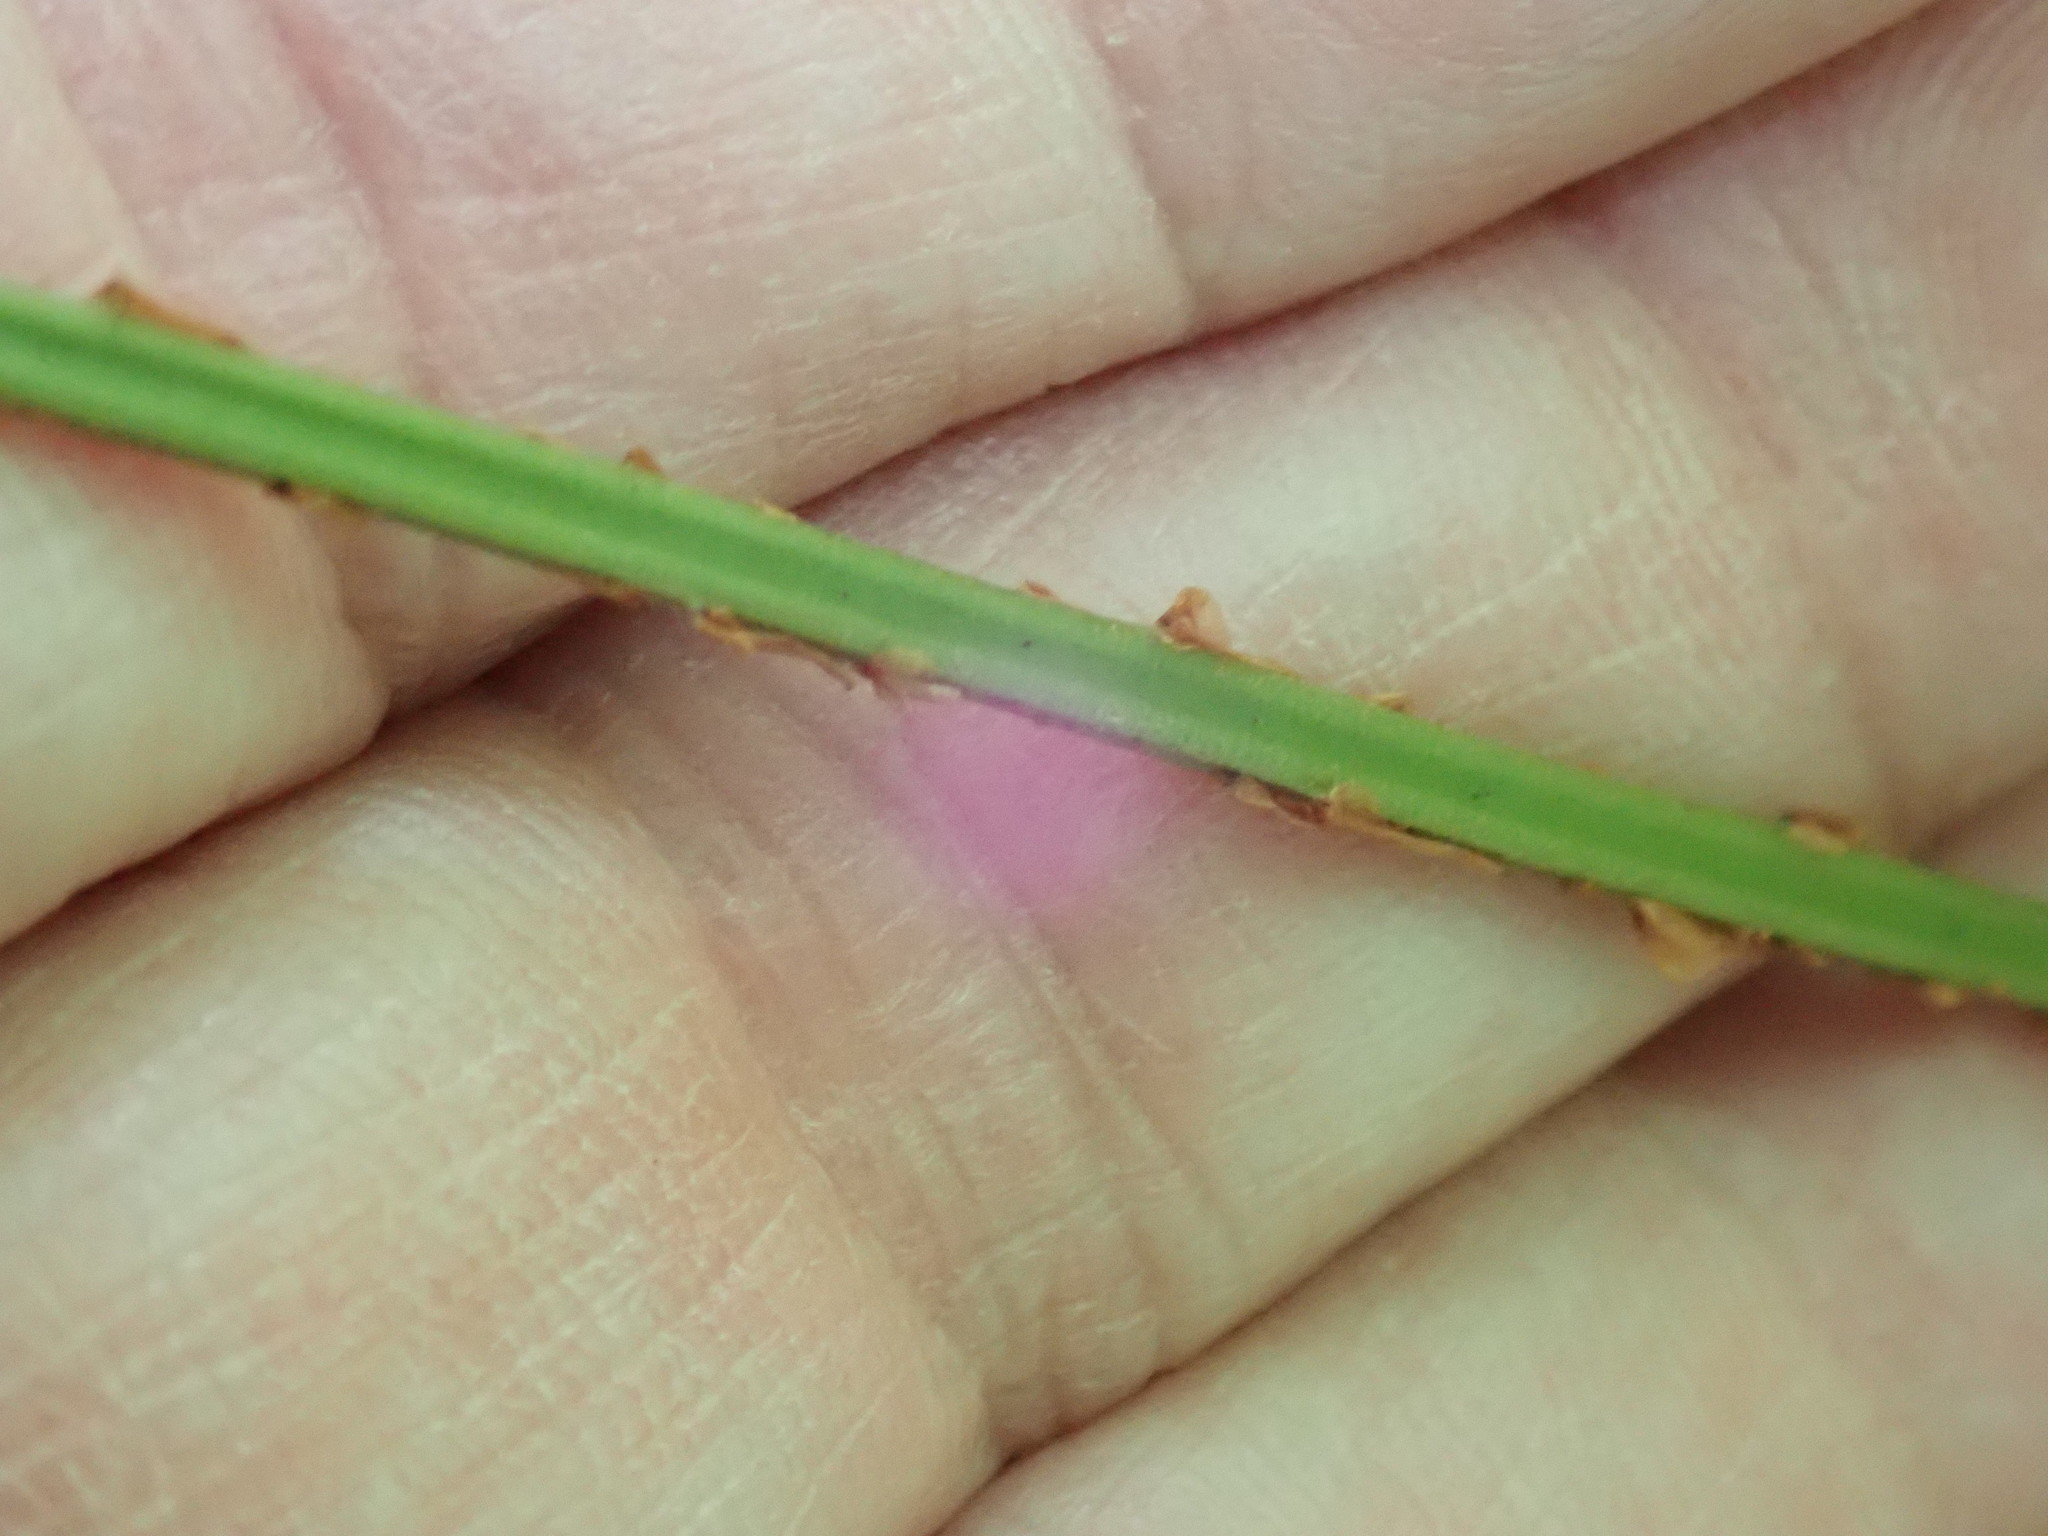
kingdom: Plantae
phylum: Tracheophyta
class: Polypodiopsida
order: Polypodiales
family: Dryopteridaceae
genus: Dryopteris
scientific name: Dryopteris intermedia
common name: Evergreen wood fern
